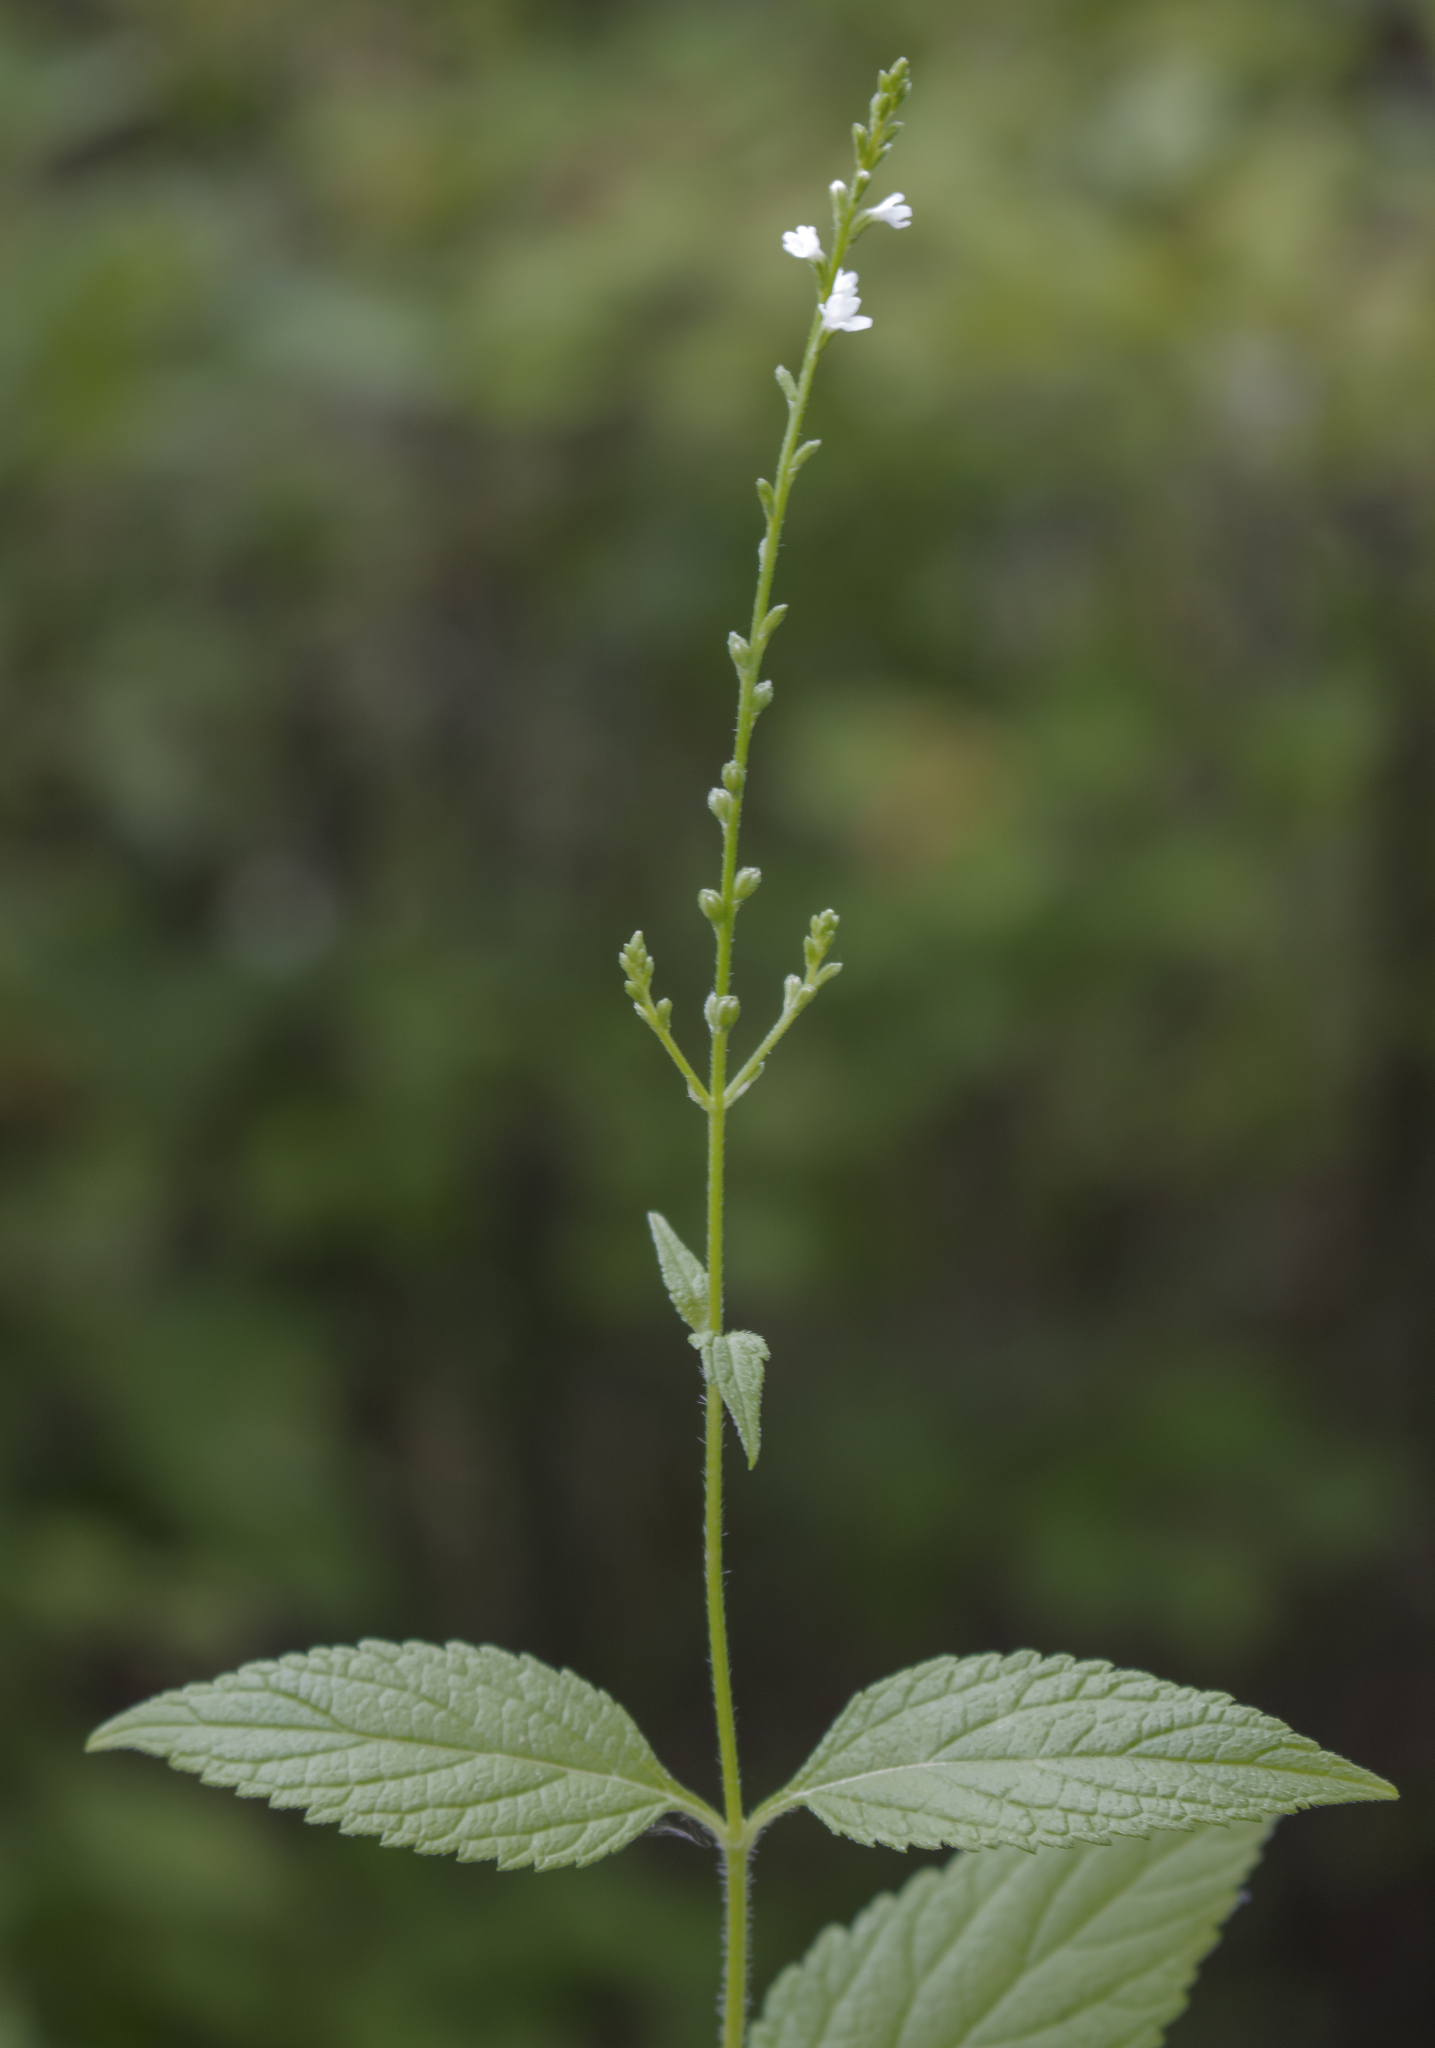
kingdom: Plantae
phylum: Tracheophyta
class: Magnoliopsida
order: Lamiales
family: Verbenaceae
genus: Verbena
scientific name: Verbena urticifolia
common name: Nettle-leaved vervain
